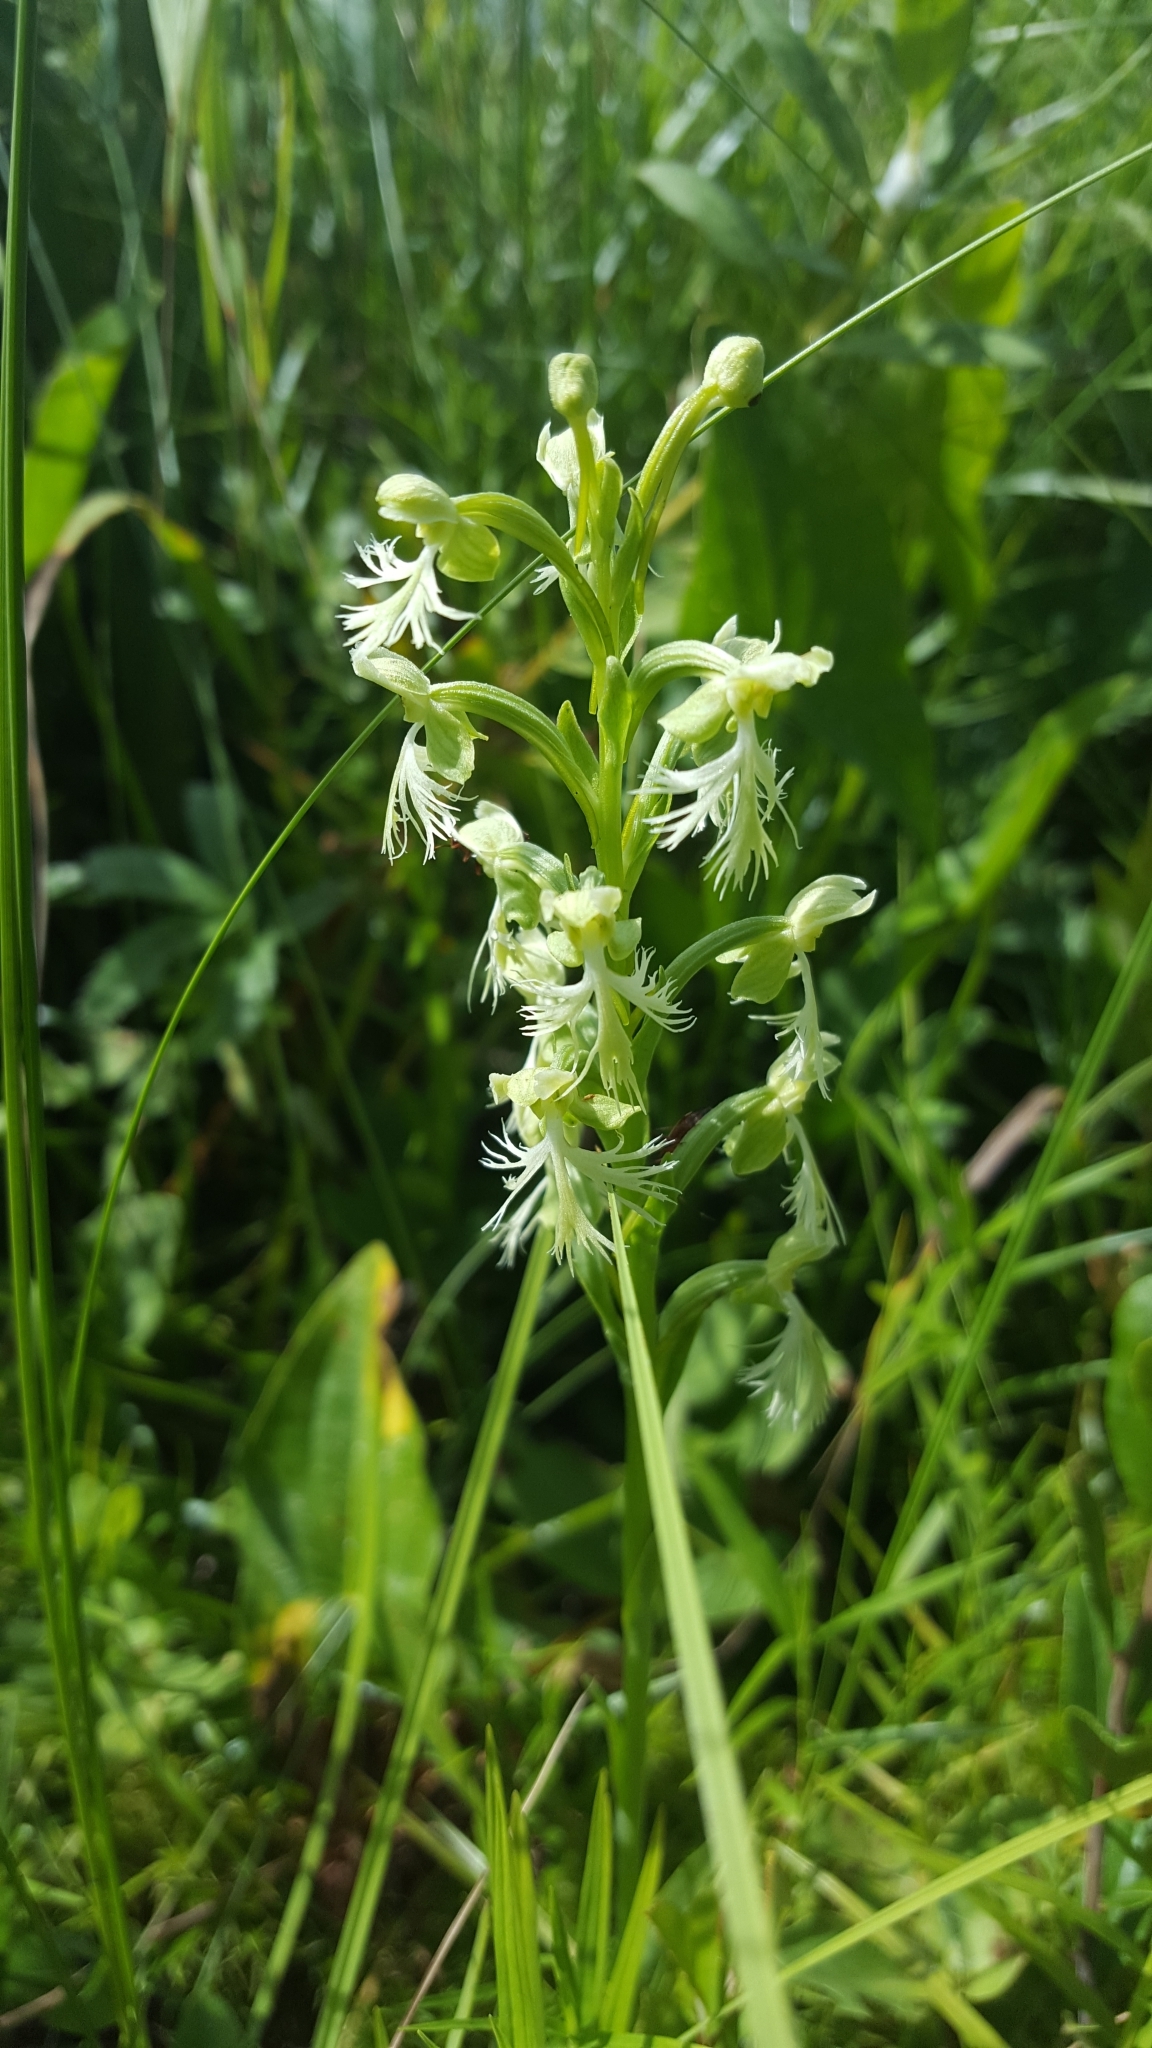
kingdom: Plantae
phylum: Tracheophyta
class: Liliopsida
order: Asparagales
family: Orchidaceae
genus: Platanthera
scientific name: Platanthera lacera
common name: Green fringed orchid
